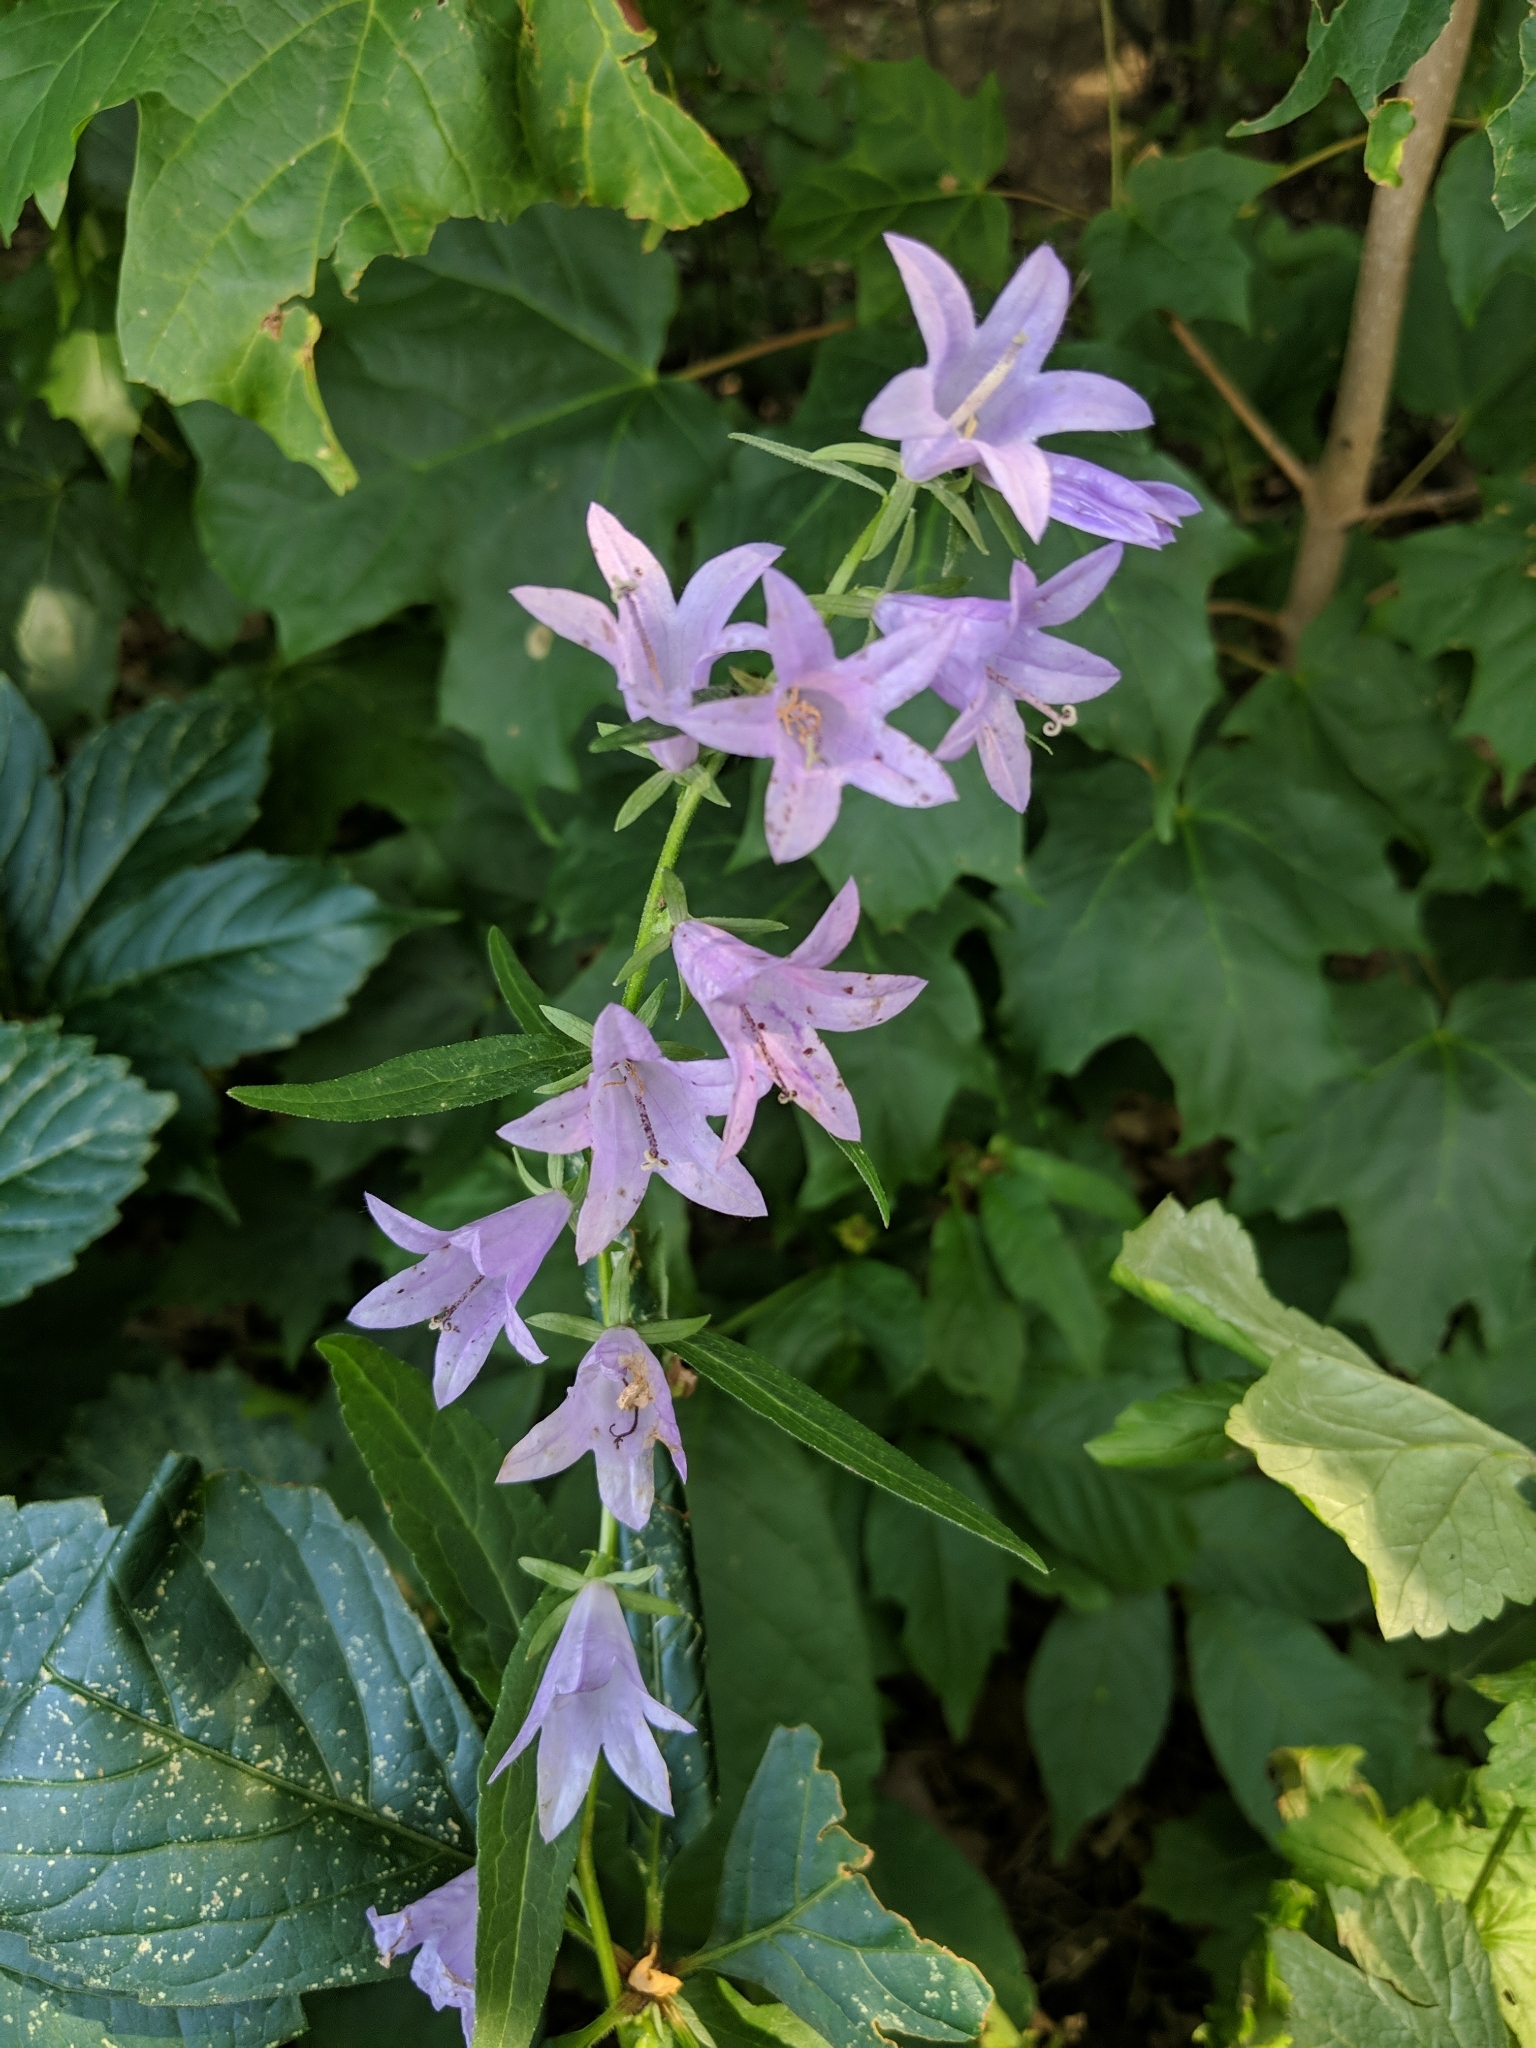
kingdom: Plantae
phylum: Tracheophyta
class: Magnoliopsida
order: Asterales
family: Campanulaceae
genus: Campanula
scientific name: Campanula rapunculoides
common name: Creeping bellflower
